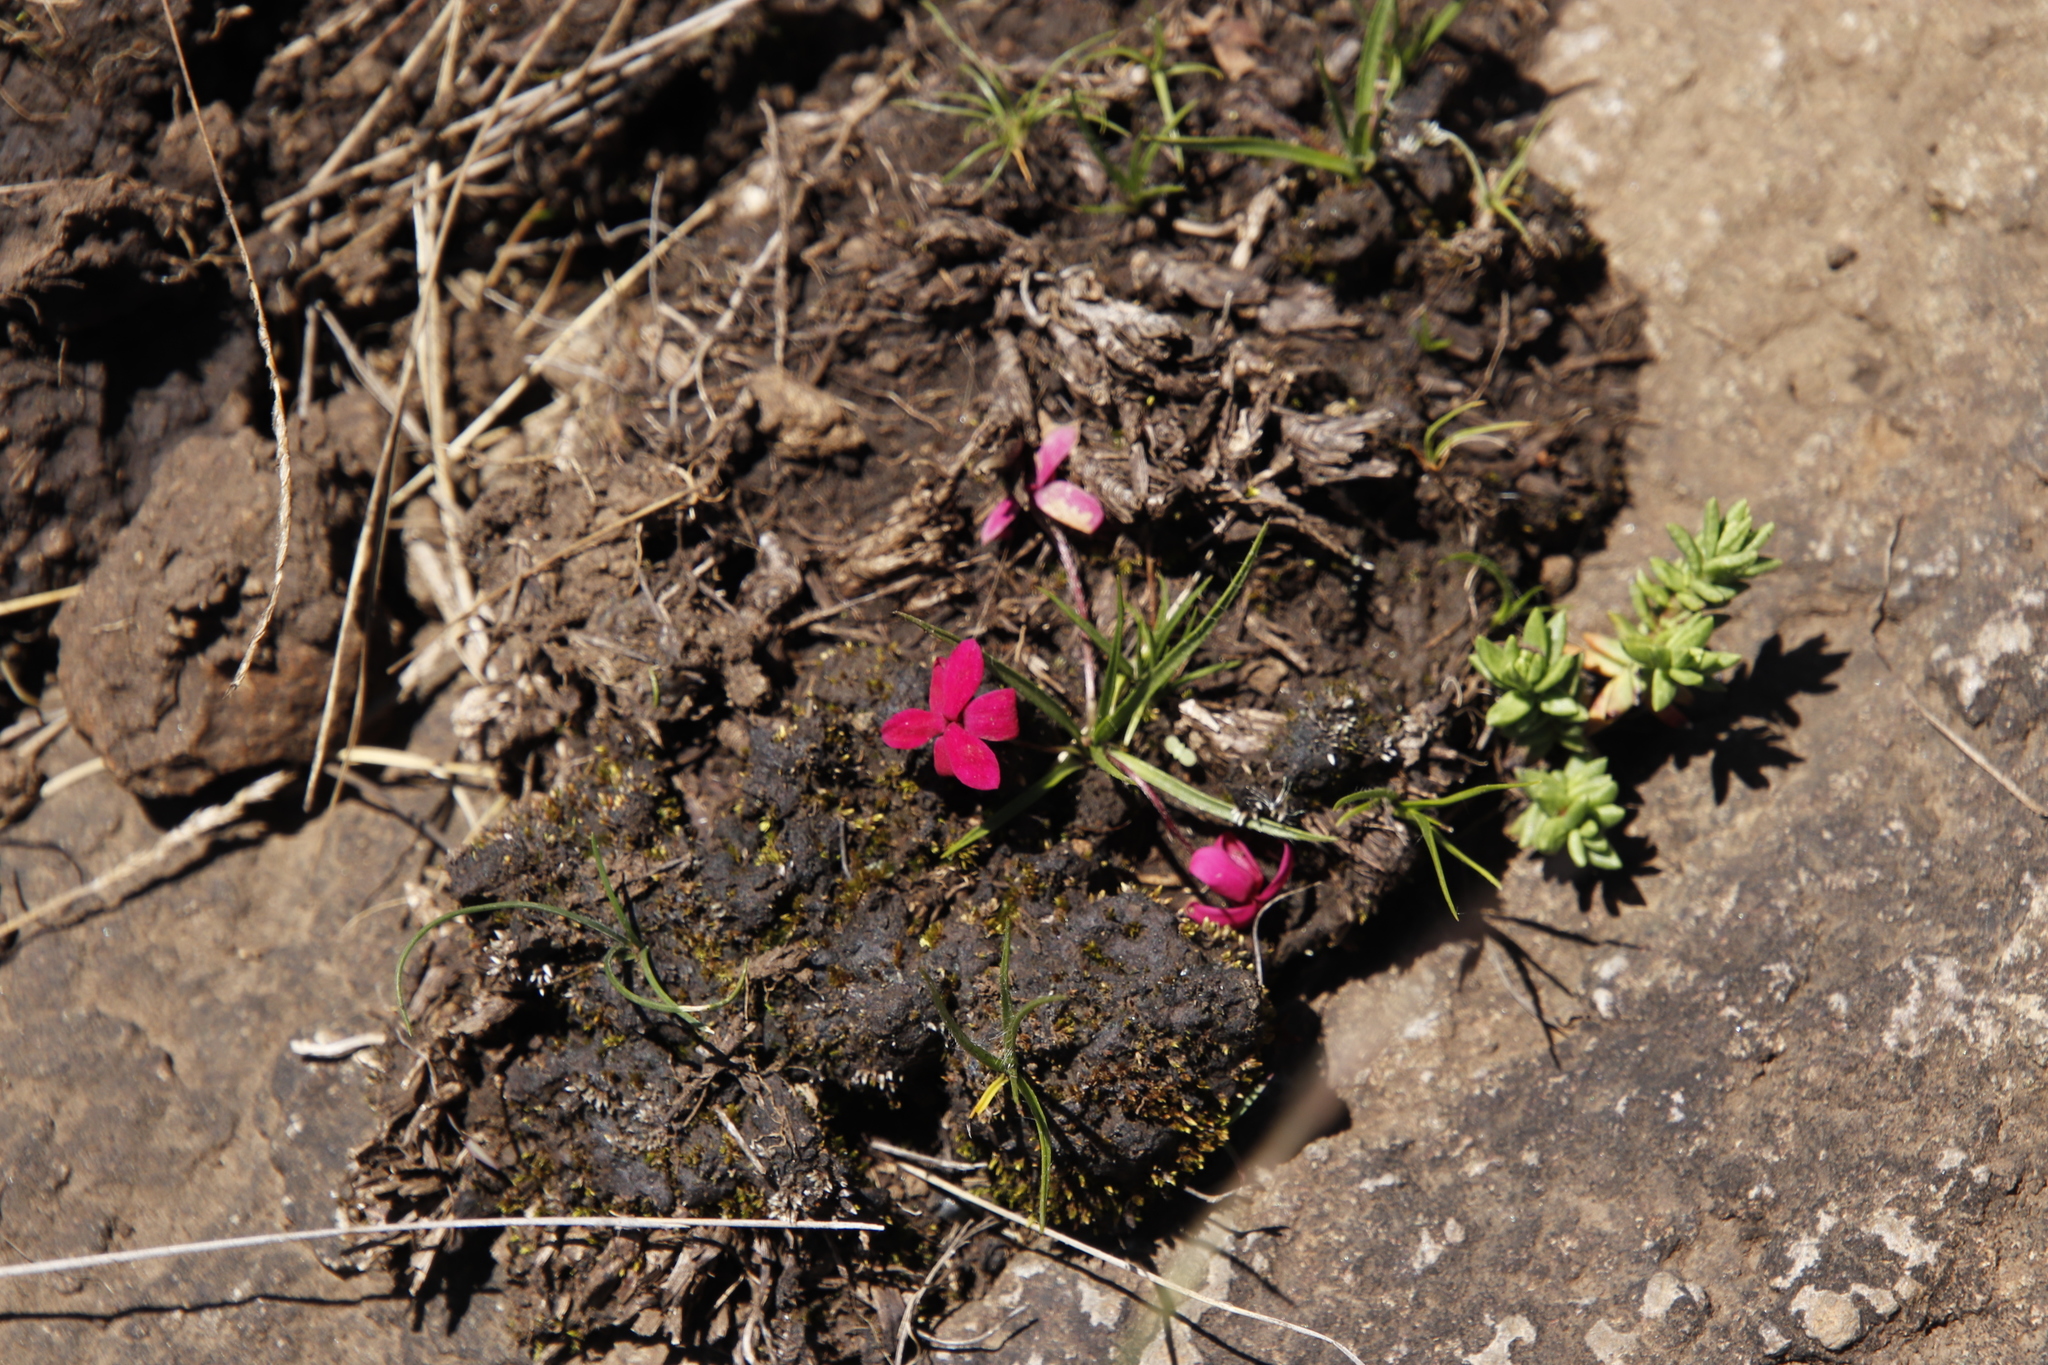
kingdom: Plantae
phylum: Tracheophyta
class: Liliopsida
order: Asparagales
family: Hypoxidaceae
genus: Hypoxis
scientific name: Hypoxis baurii
